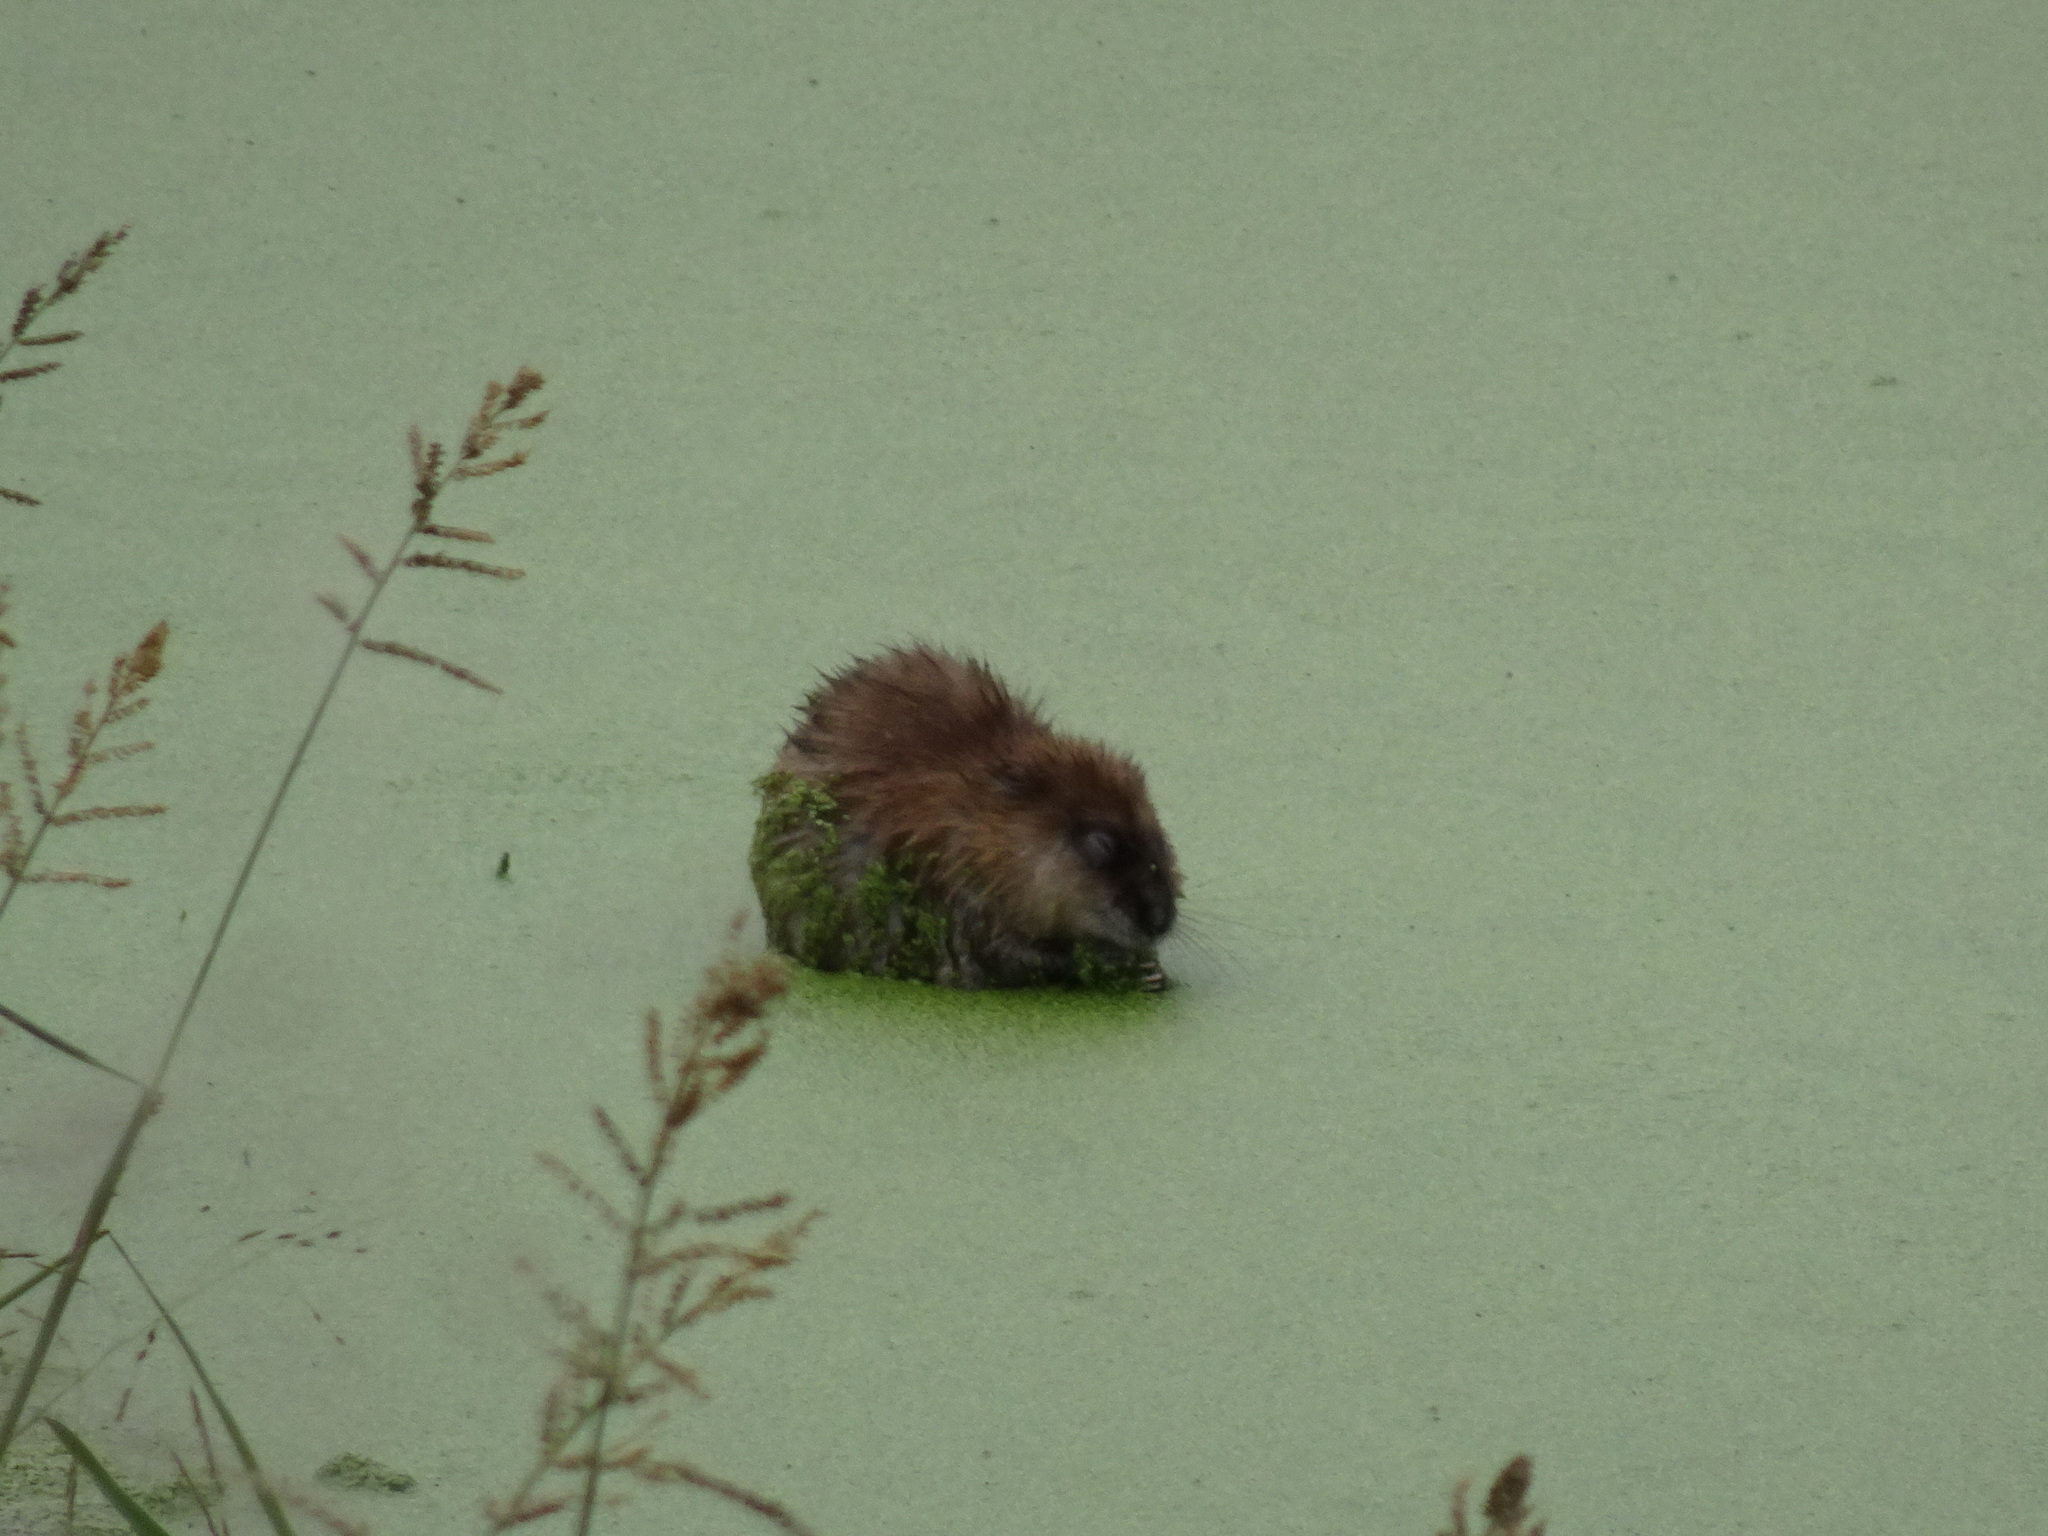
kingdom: Animalia
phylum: Chordata
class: Mammalia
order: Rodentia
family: Cricetidae
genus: Ondatra
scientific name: Ondatra zibethicus
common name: Muskrat
